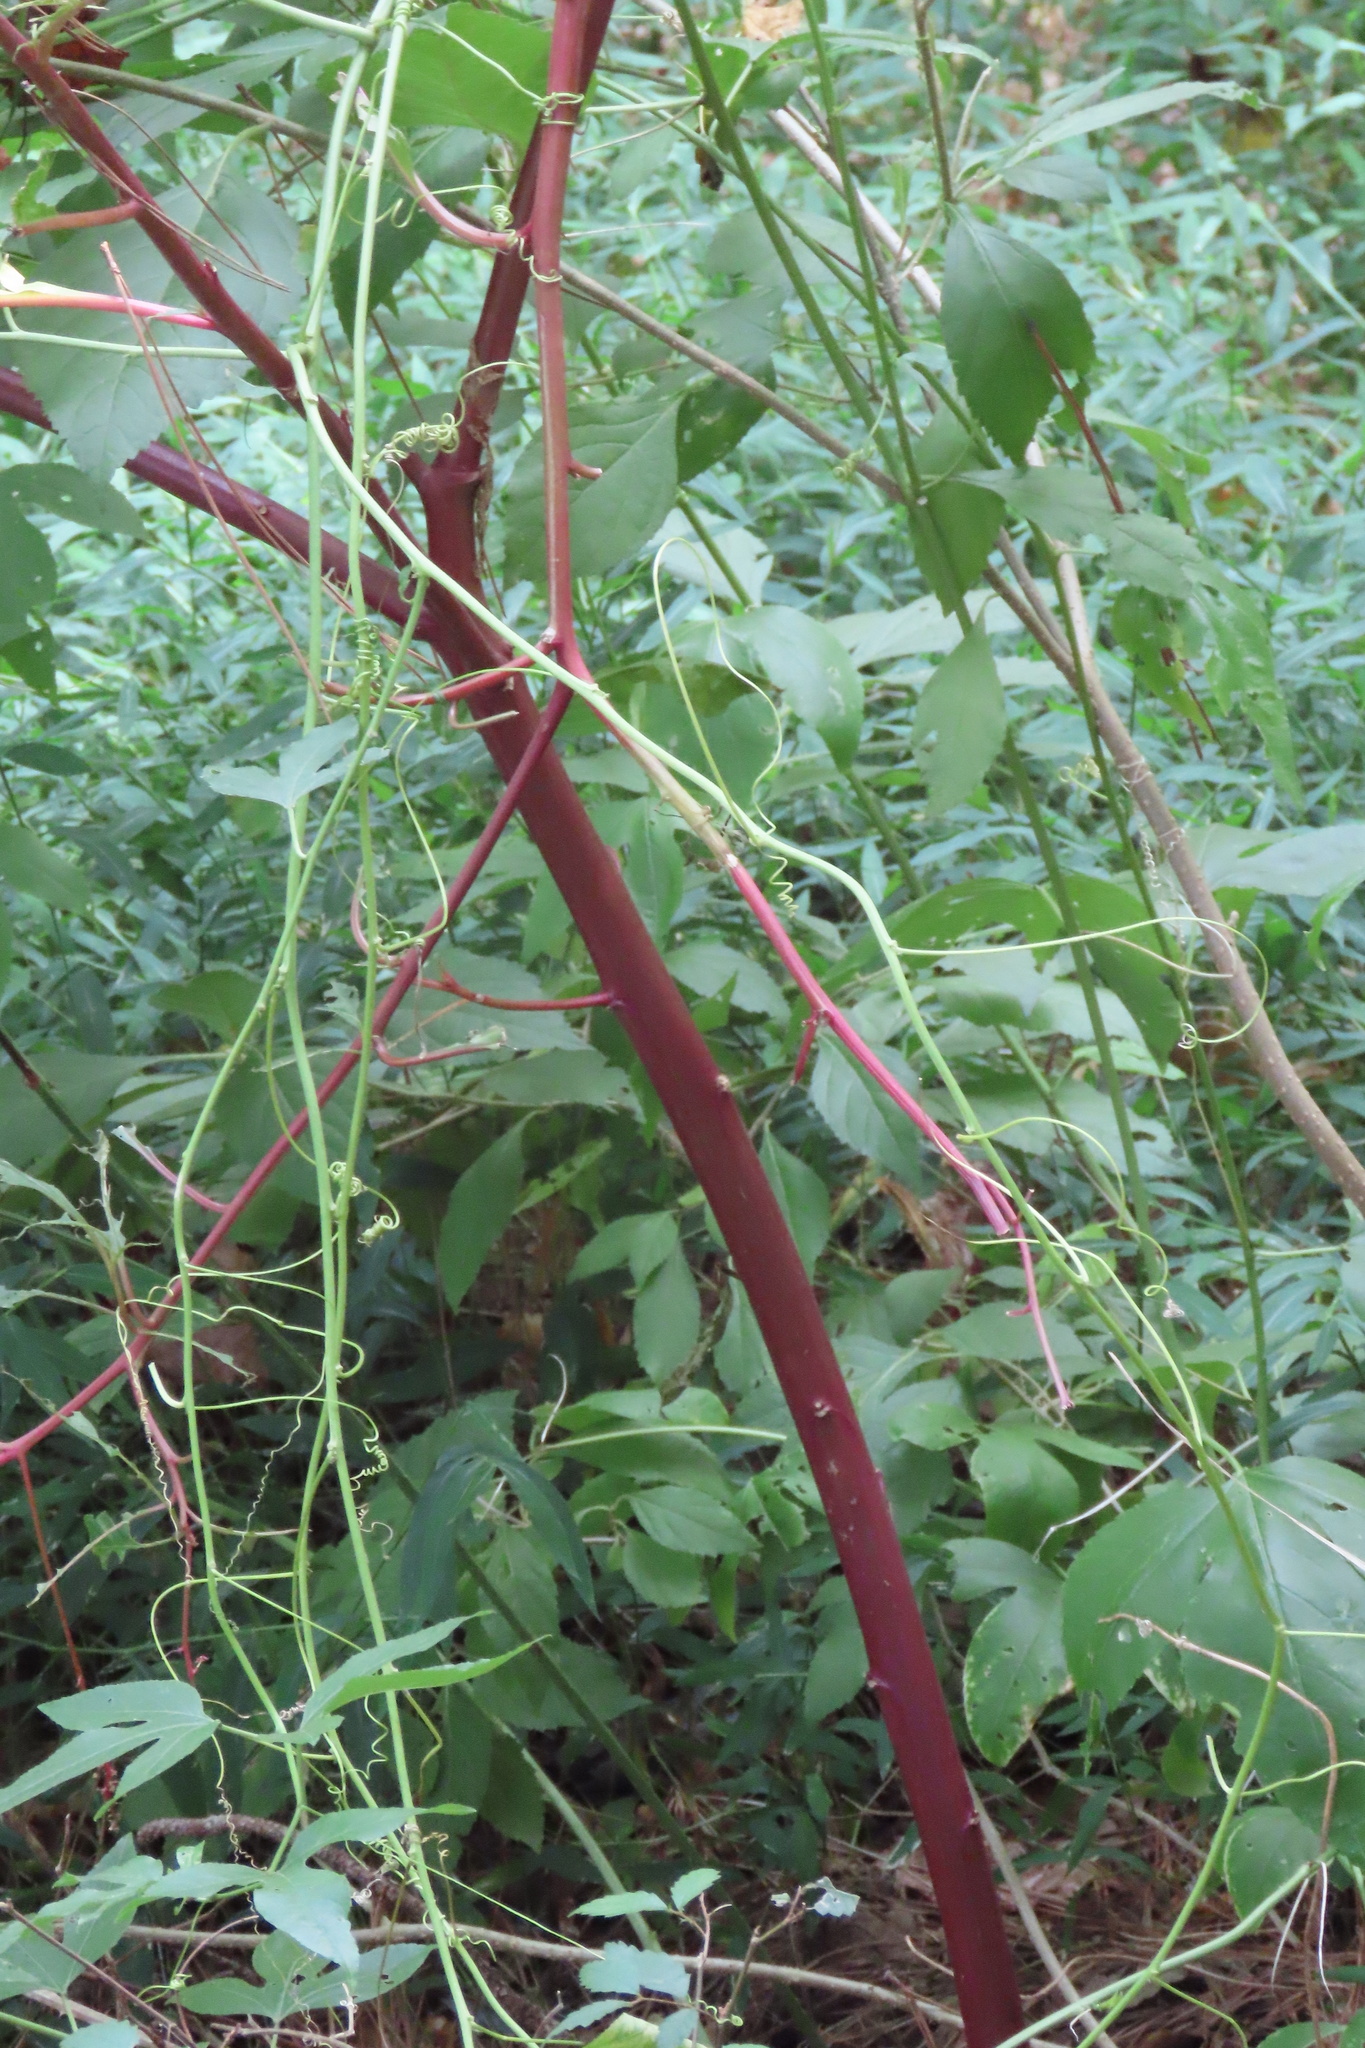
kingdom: Plantae
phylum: Tracheophyta
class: Magnoliopsida
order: Caryophyllales
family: Phytolaccaceae
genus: Phytolacca
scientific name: Phytolacca americana
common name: American pokeweed
